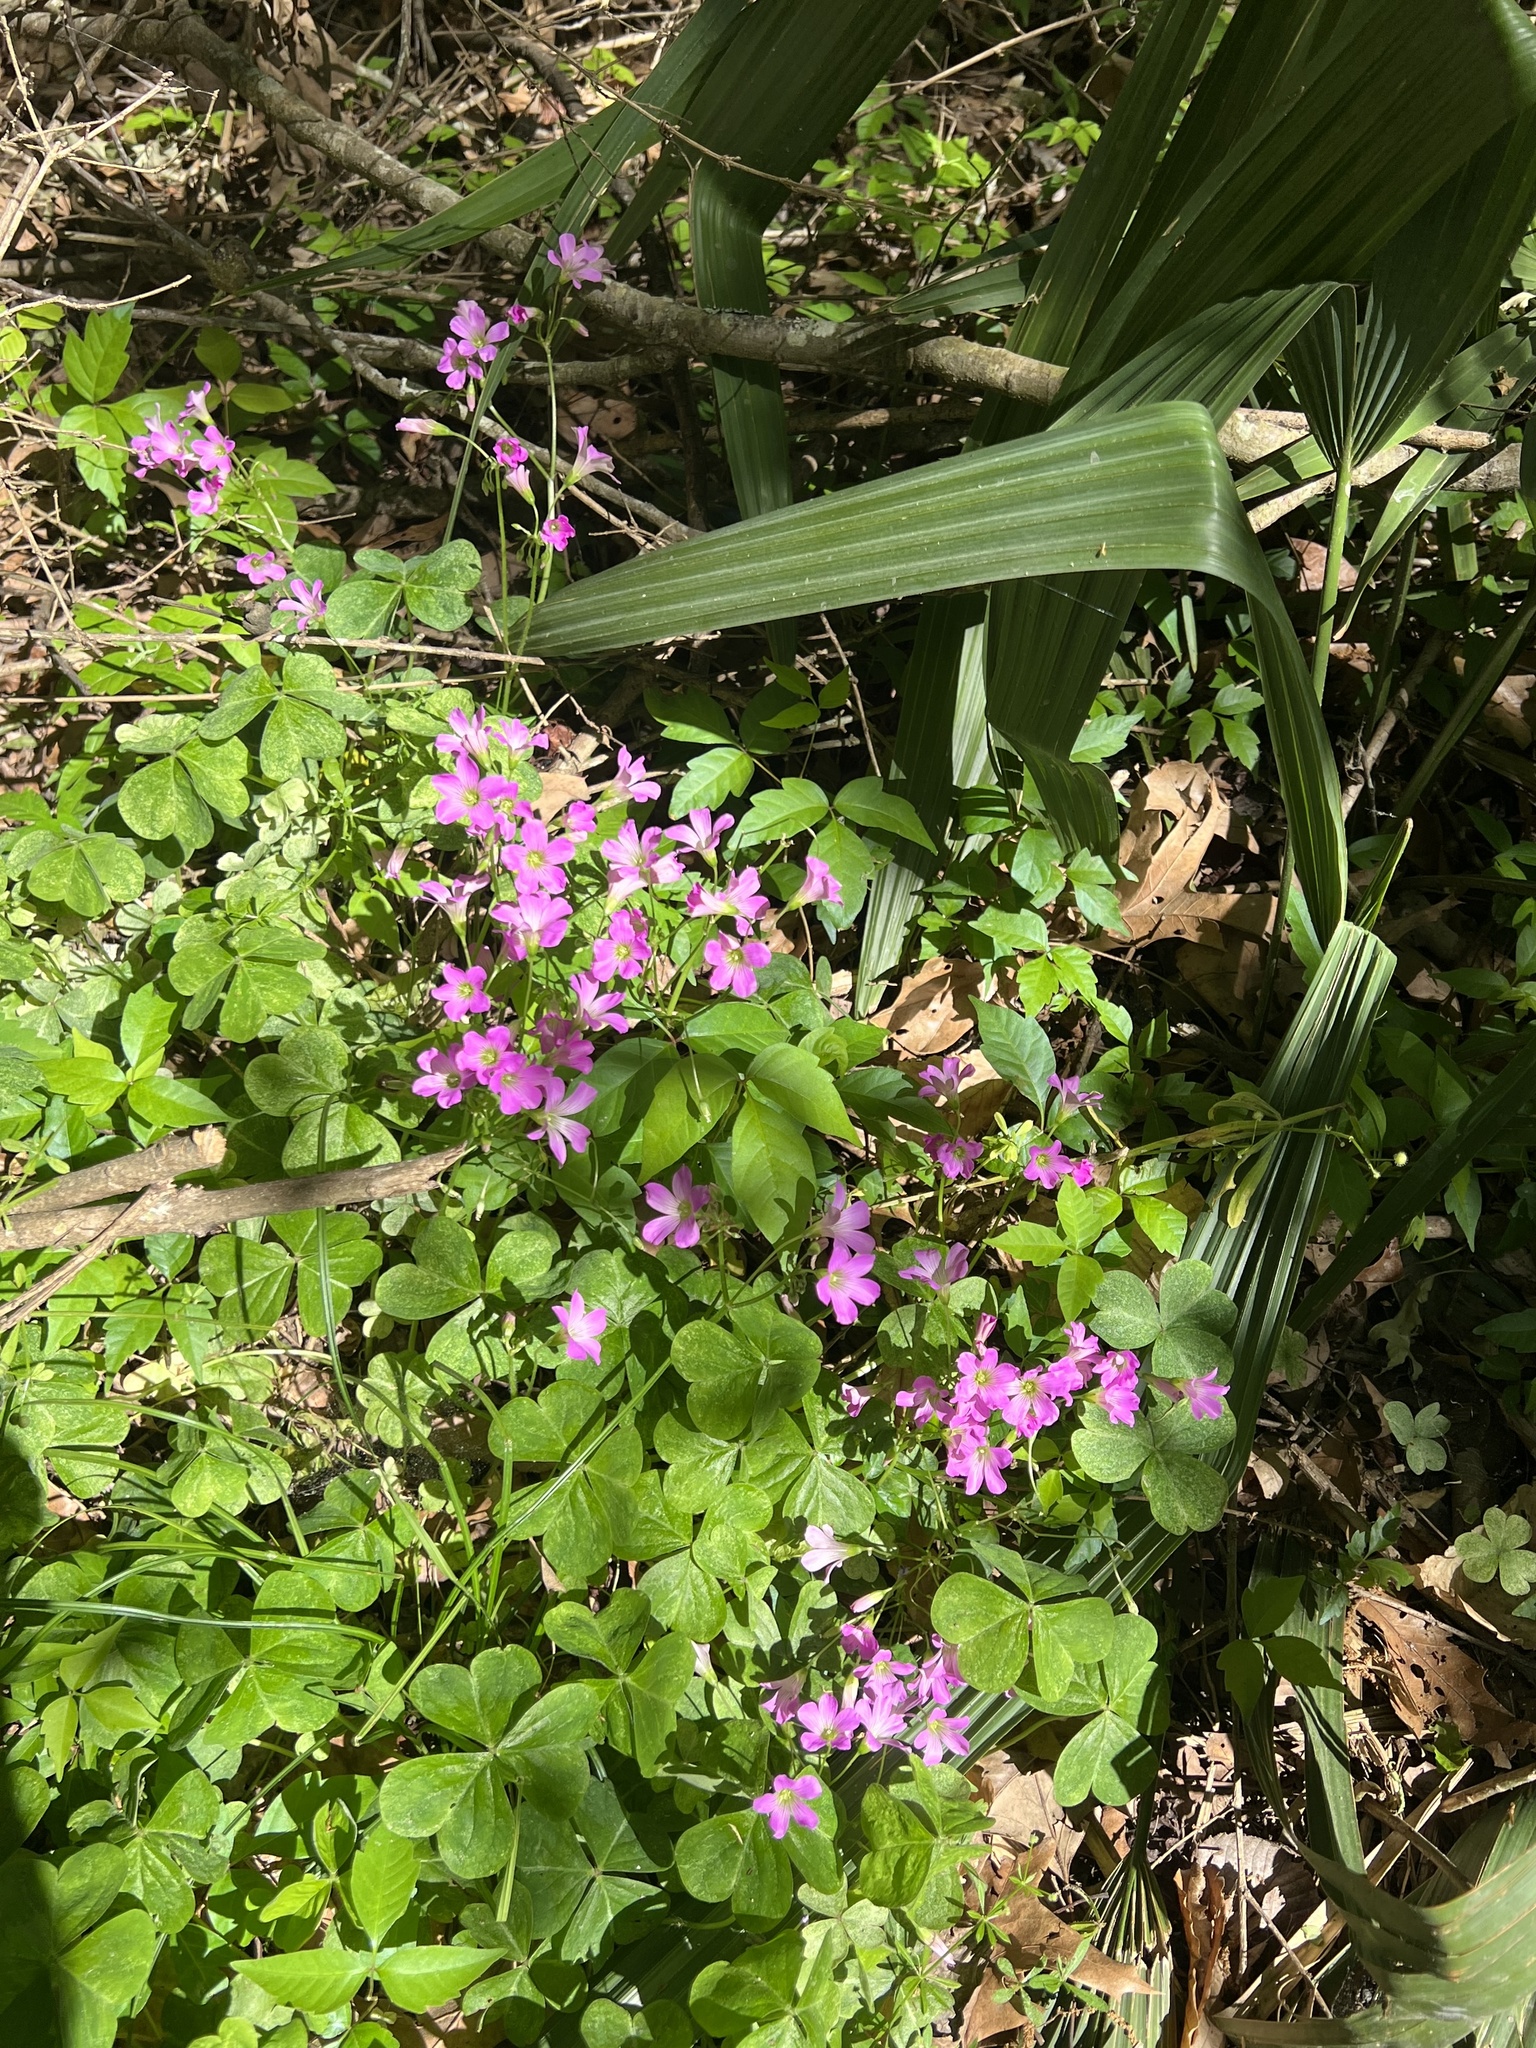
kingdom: Plantae
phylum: Tracheophyta
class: Magnoliopsida
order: Oxalidales
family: Oxalidaceae
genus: Oxalis
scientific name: Oxalis debilis
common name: Large-flowered pink-sorrel
